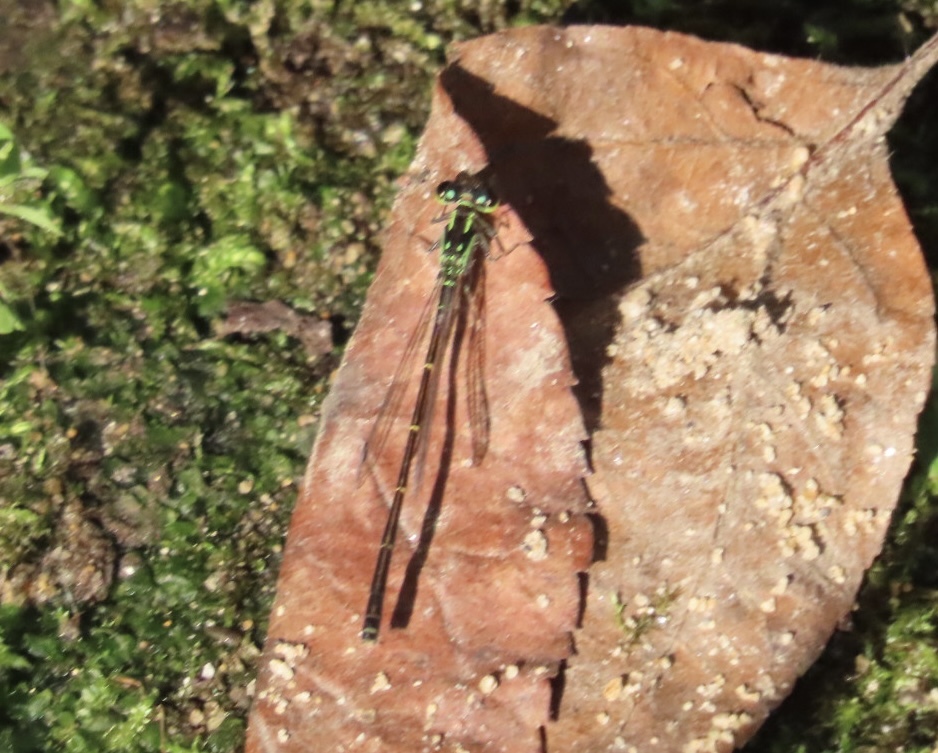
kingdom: Animalia
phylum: Arthropoda
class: Insecta
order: Odonata
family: Coenagrionidae
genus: Ischnura
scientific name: Ischnura posita
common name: Fragile forktail
